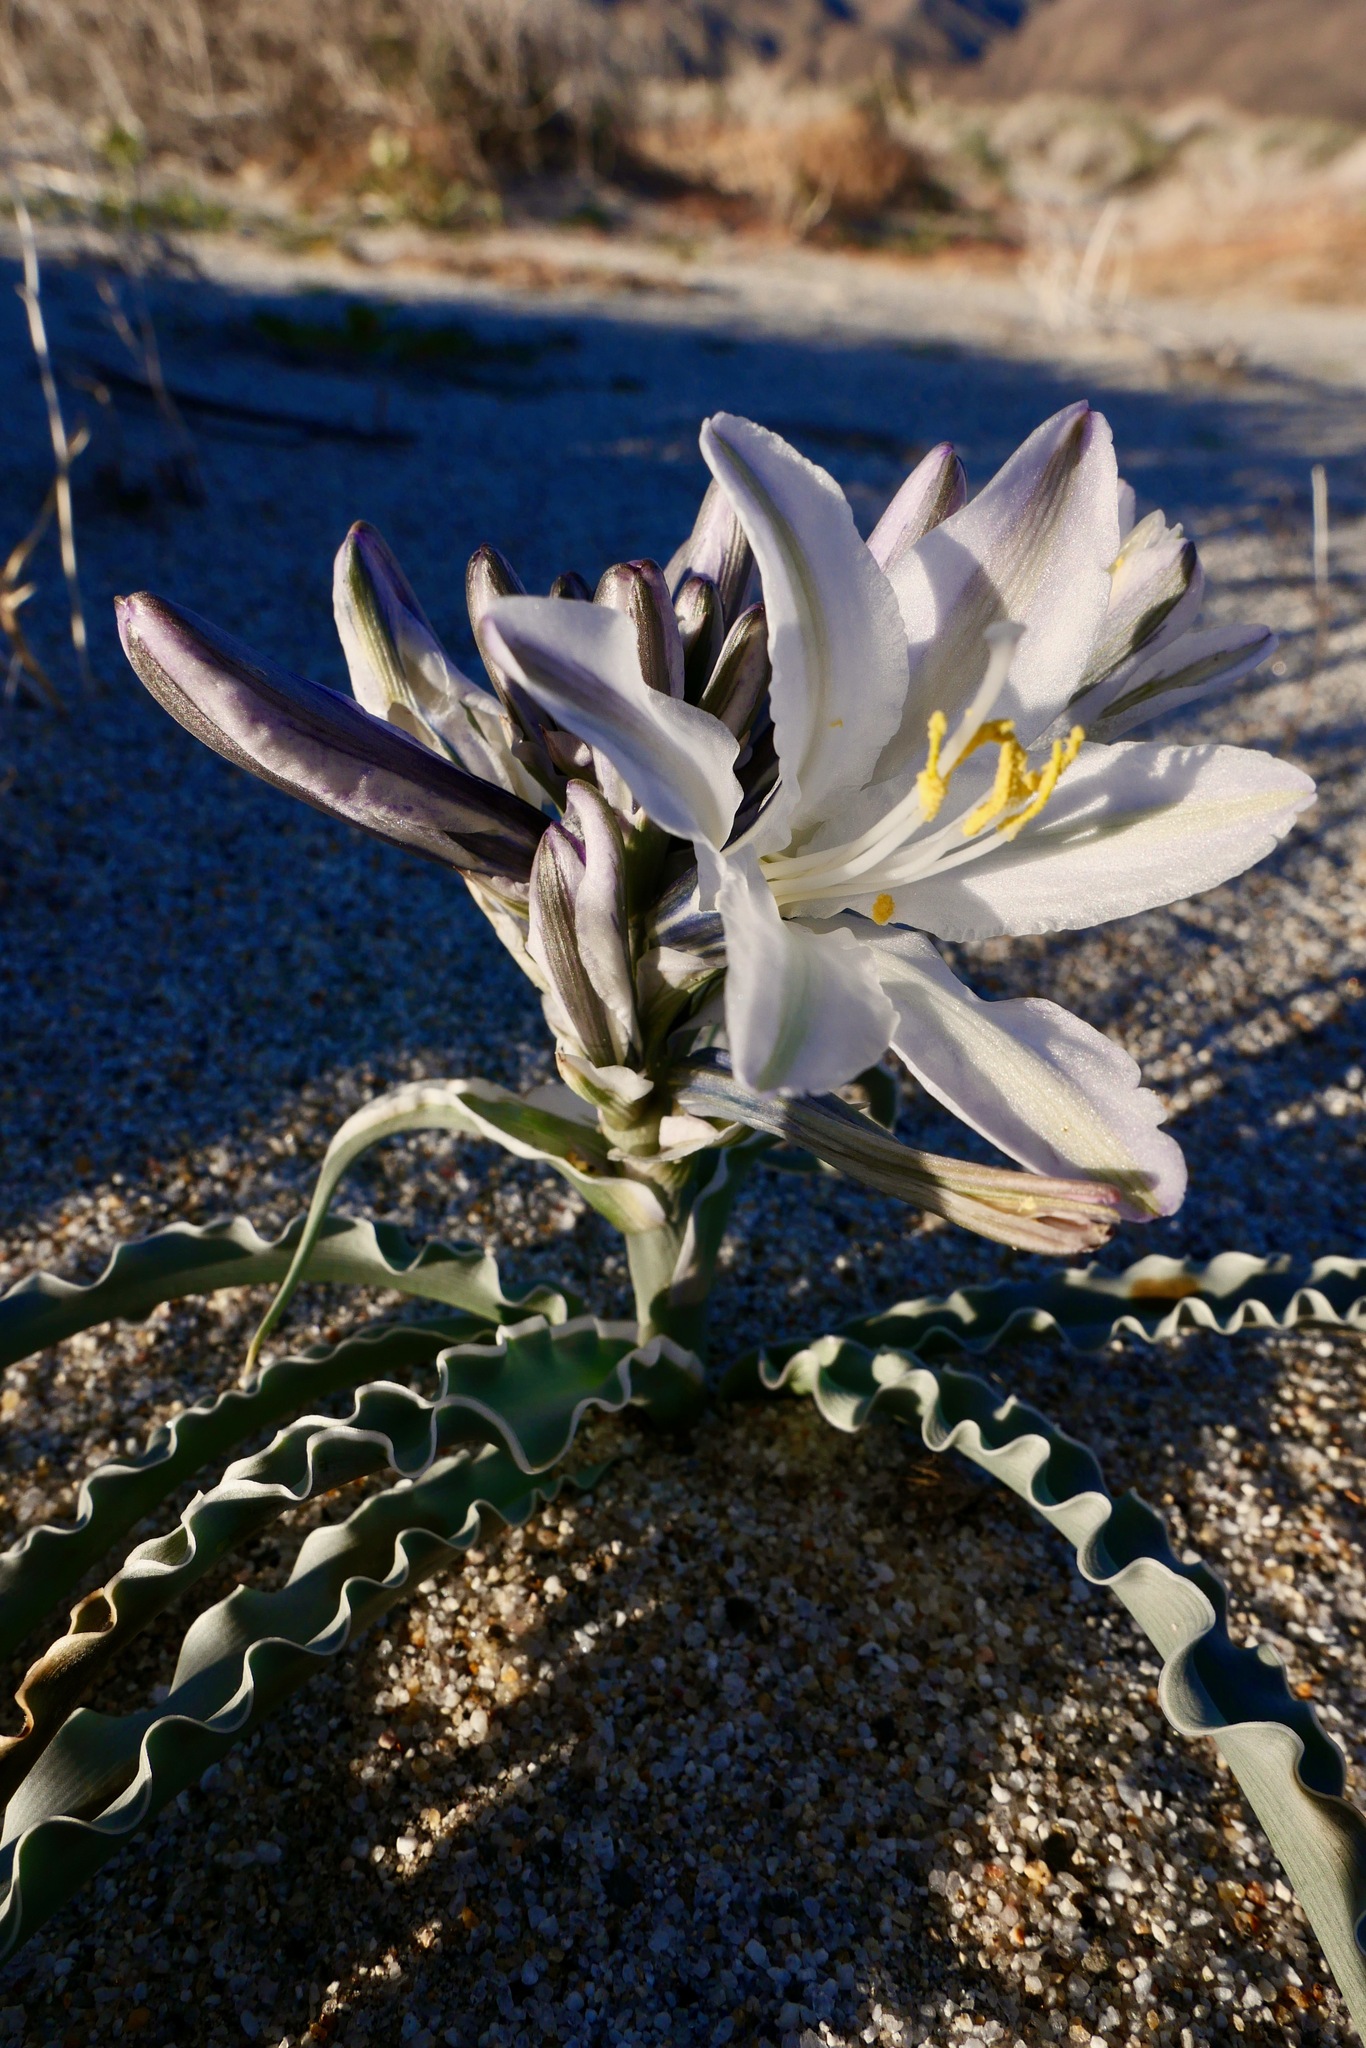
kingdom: Plantae
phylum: Tracheophyta
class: Liliopsida
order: Asparagales
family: Asparagaceae
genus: Hesperocallis
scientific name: Hesperocallis undulata
